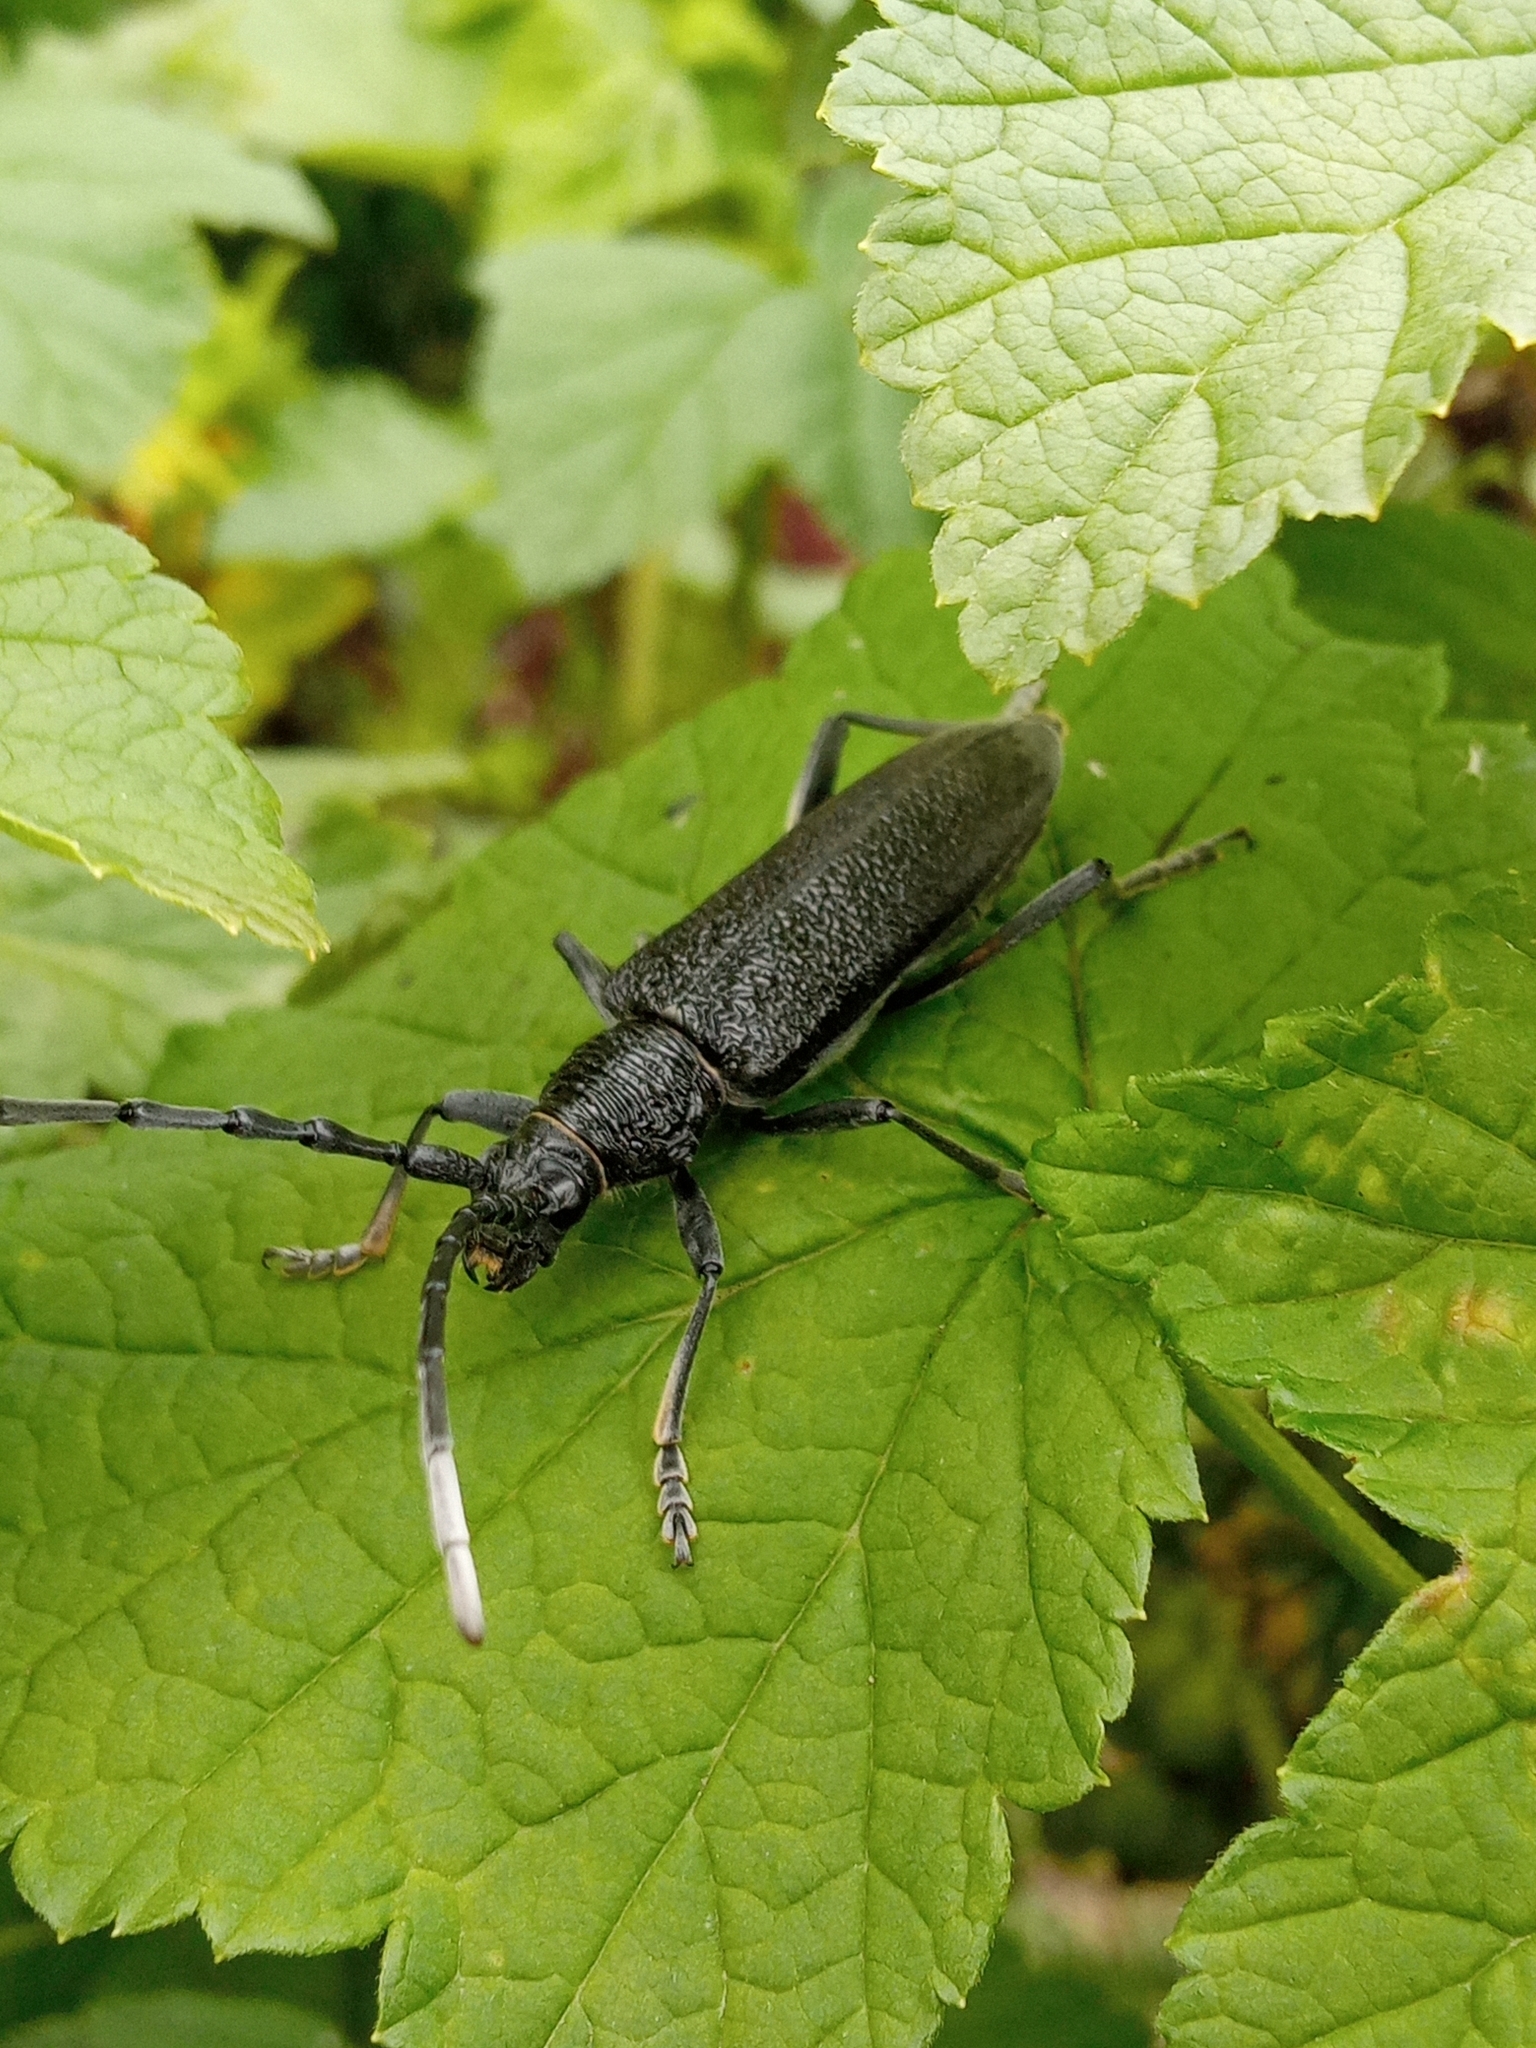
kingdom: Animalia
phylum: Arthropoda
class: Insecta
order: Coleoptera
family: Cerambycidae
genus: Cerambyx
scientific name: Cerambyx scopolii
